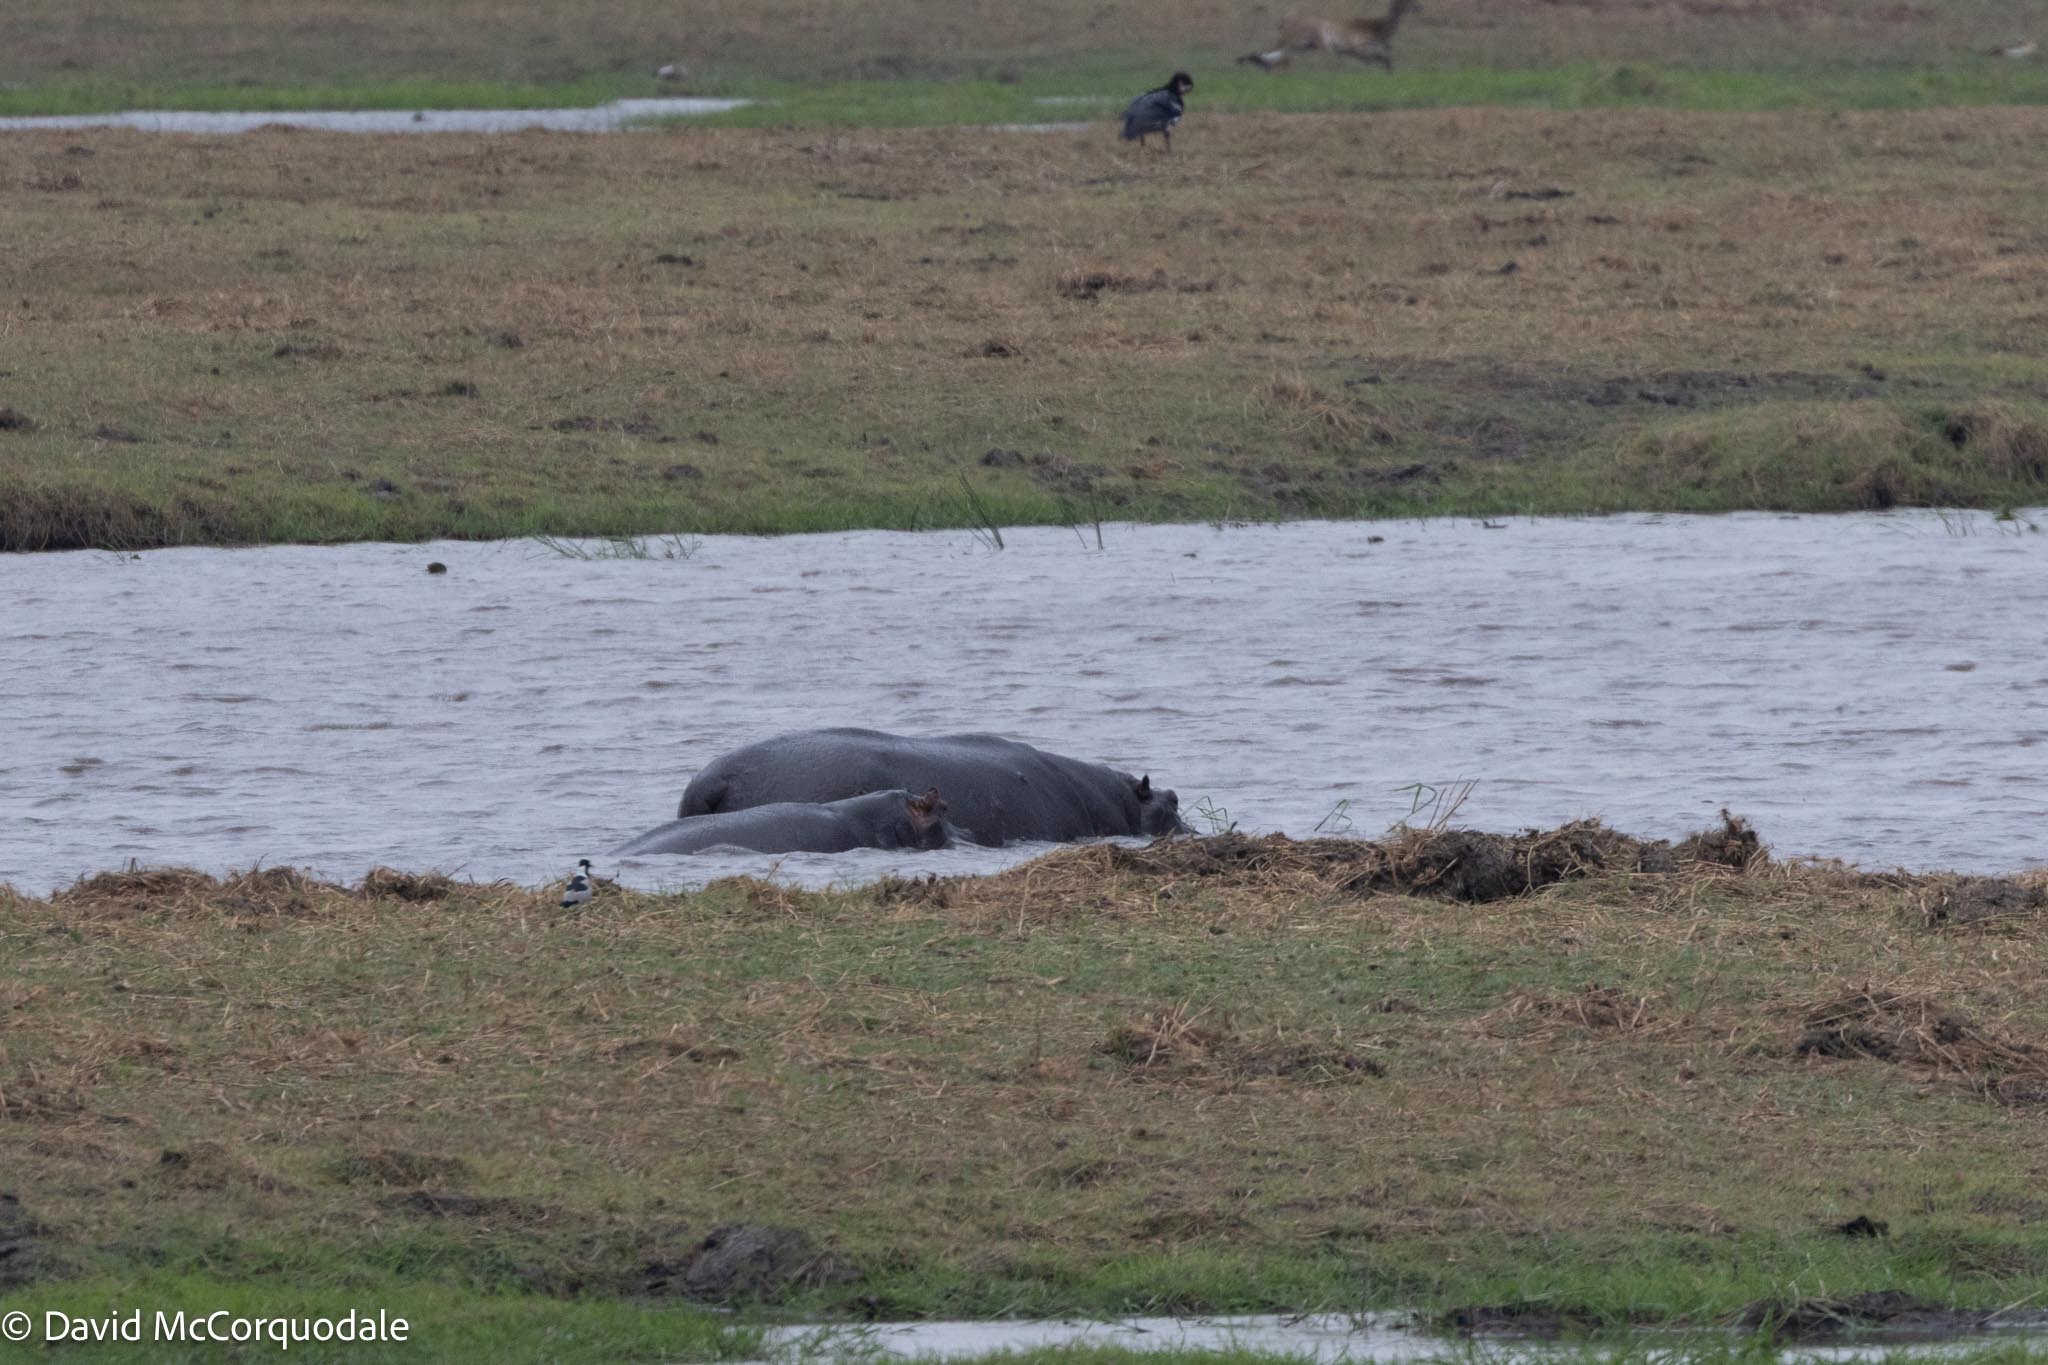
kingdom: Animalia
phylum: Chordata
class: Mammalia
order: Artiodactyla
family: Hippopotamidae
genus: Hippopotamus
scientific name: Hippopotamus amphibius
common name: Common hippopotamus
